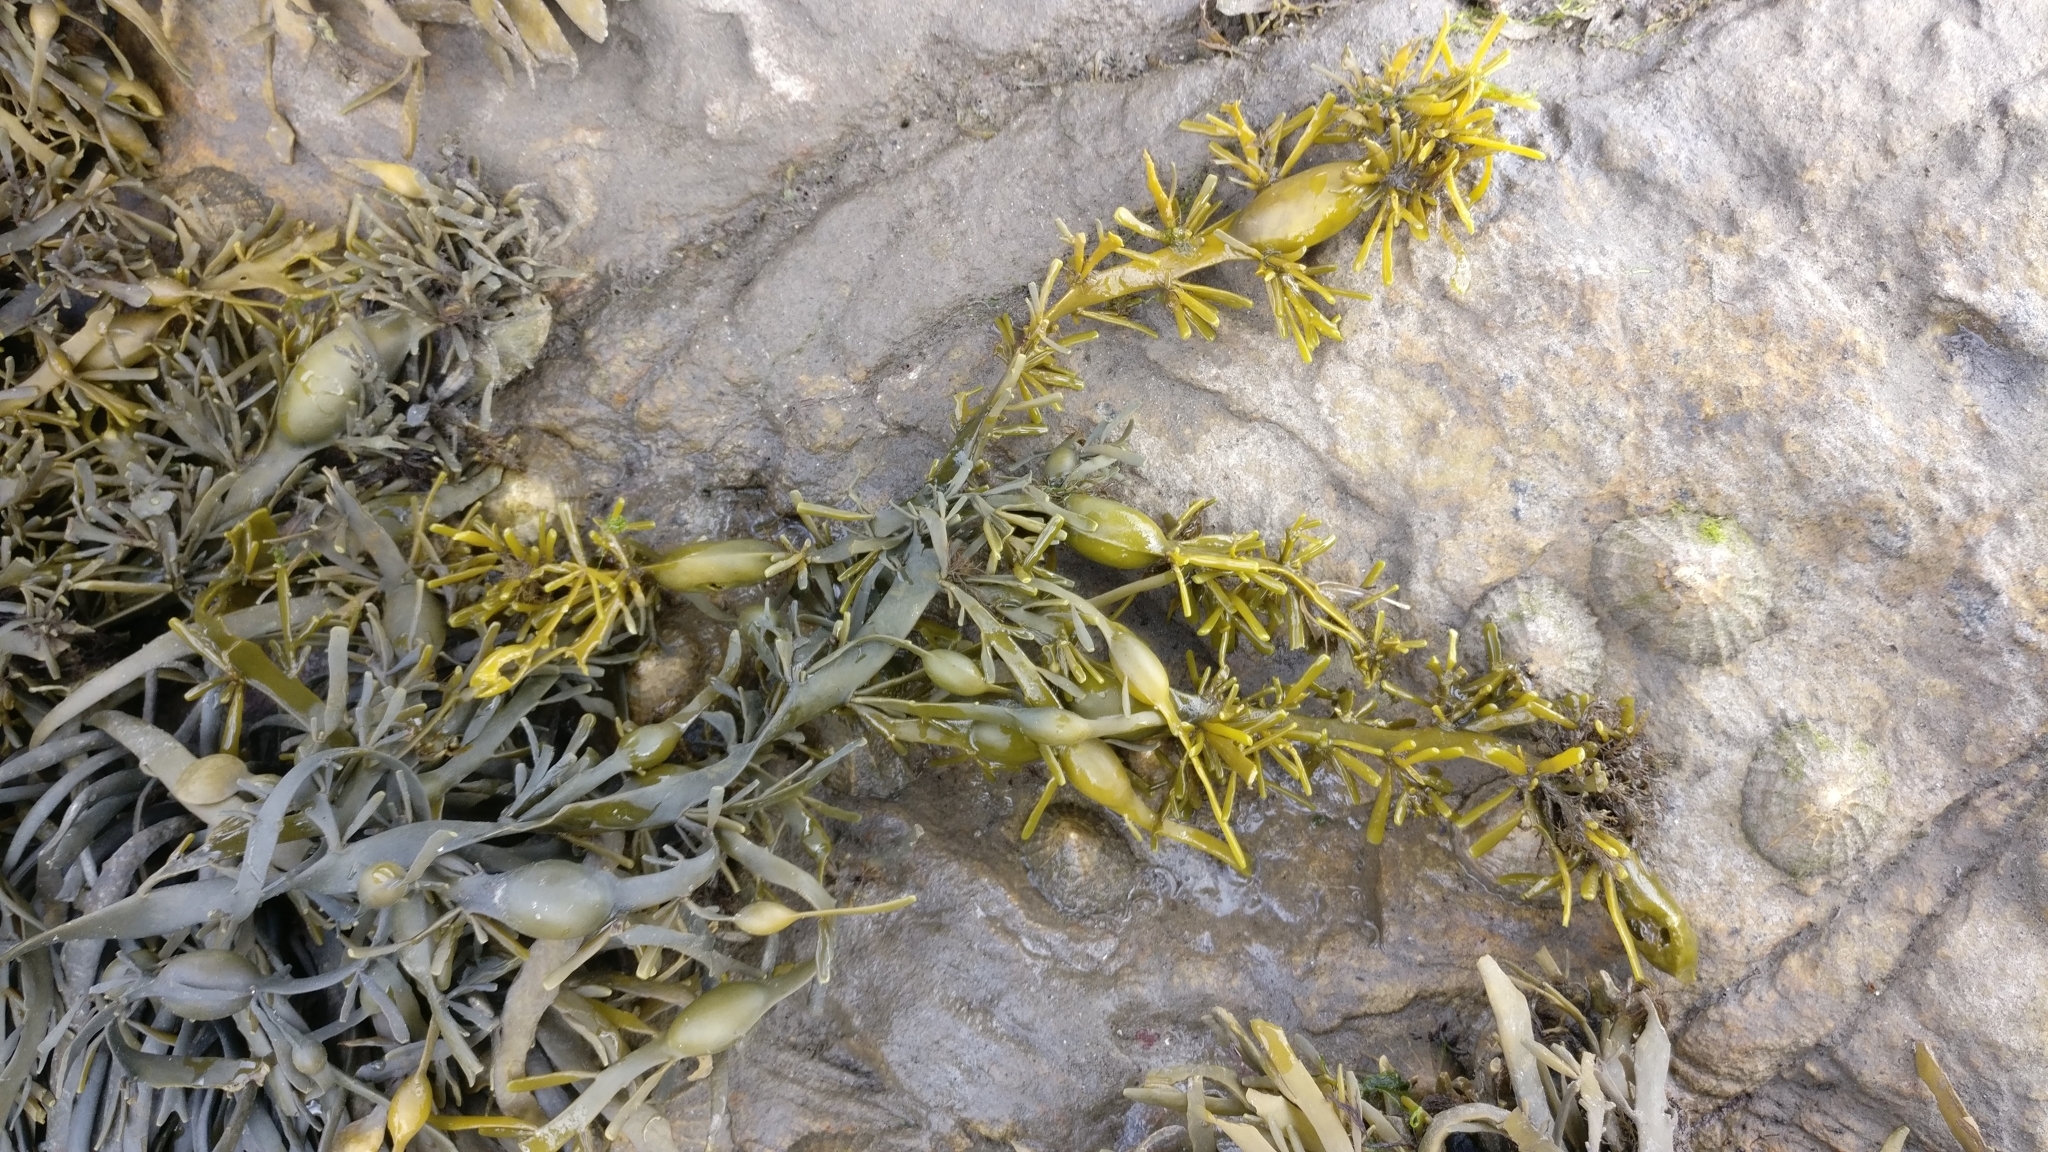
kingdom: Chromista
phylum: Ochrophyta
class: Phaeophyceae
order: Fucales
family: Fucaceae
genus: Ascophyllum
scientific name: Ascophyllum nodosum
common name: Knotted wrack
